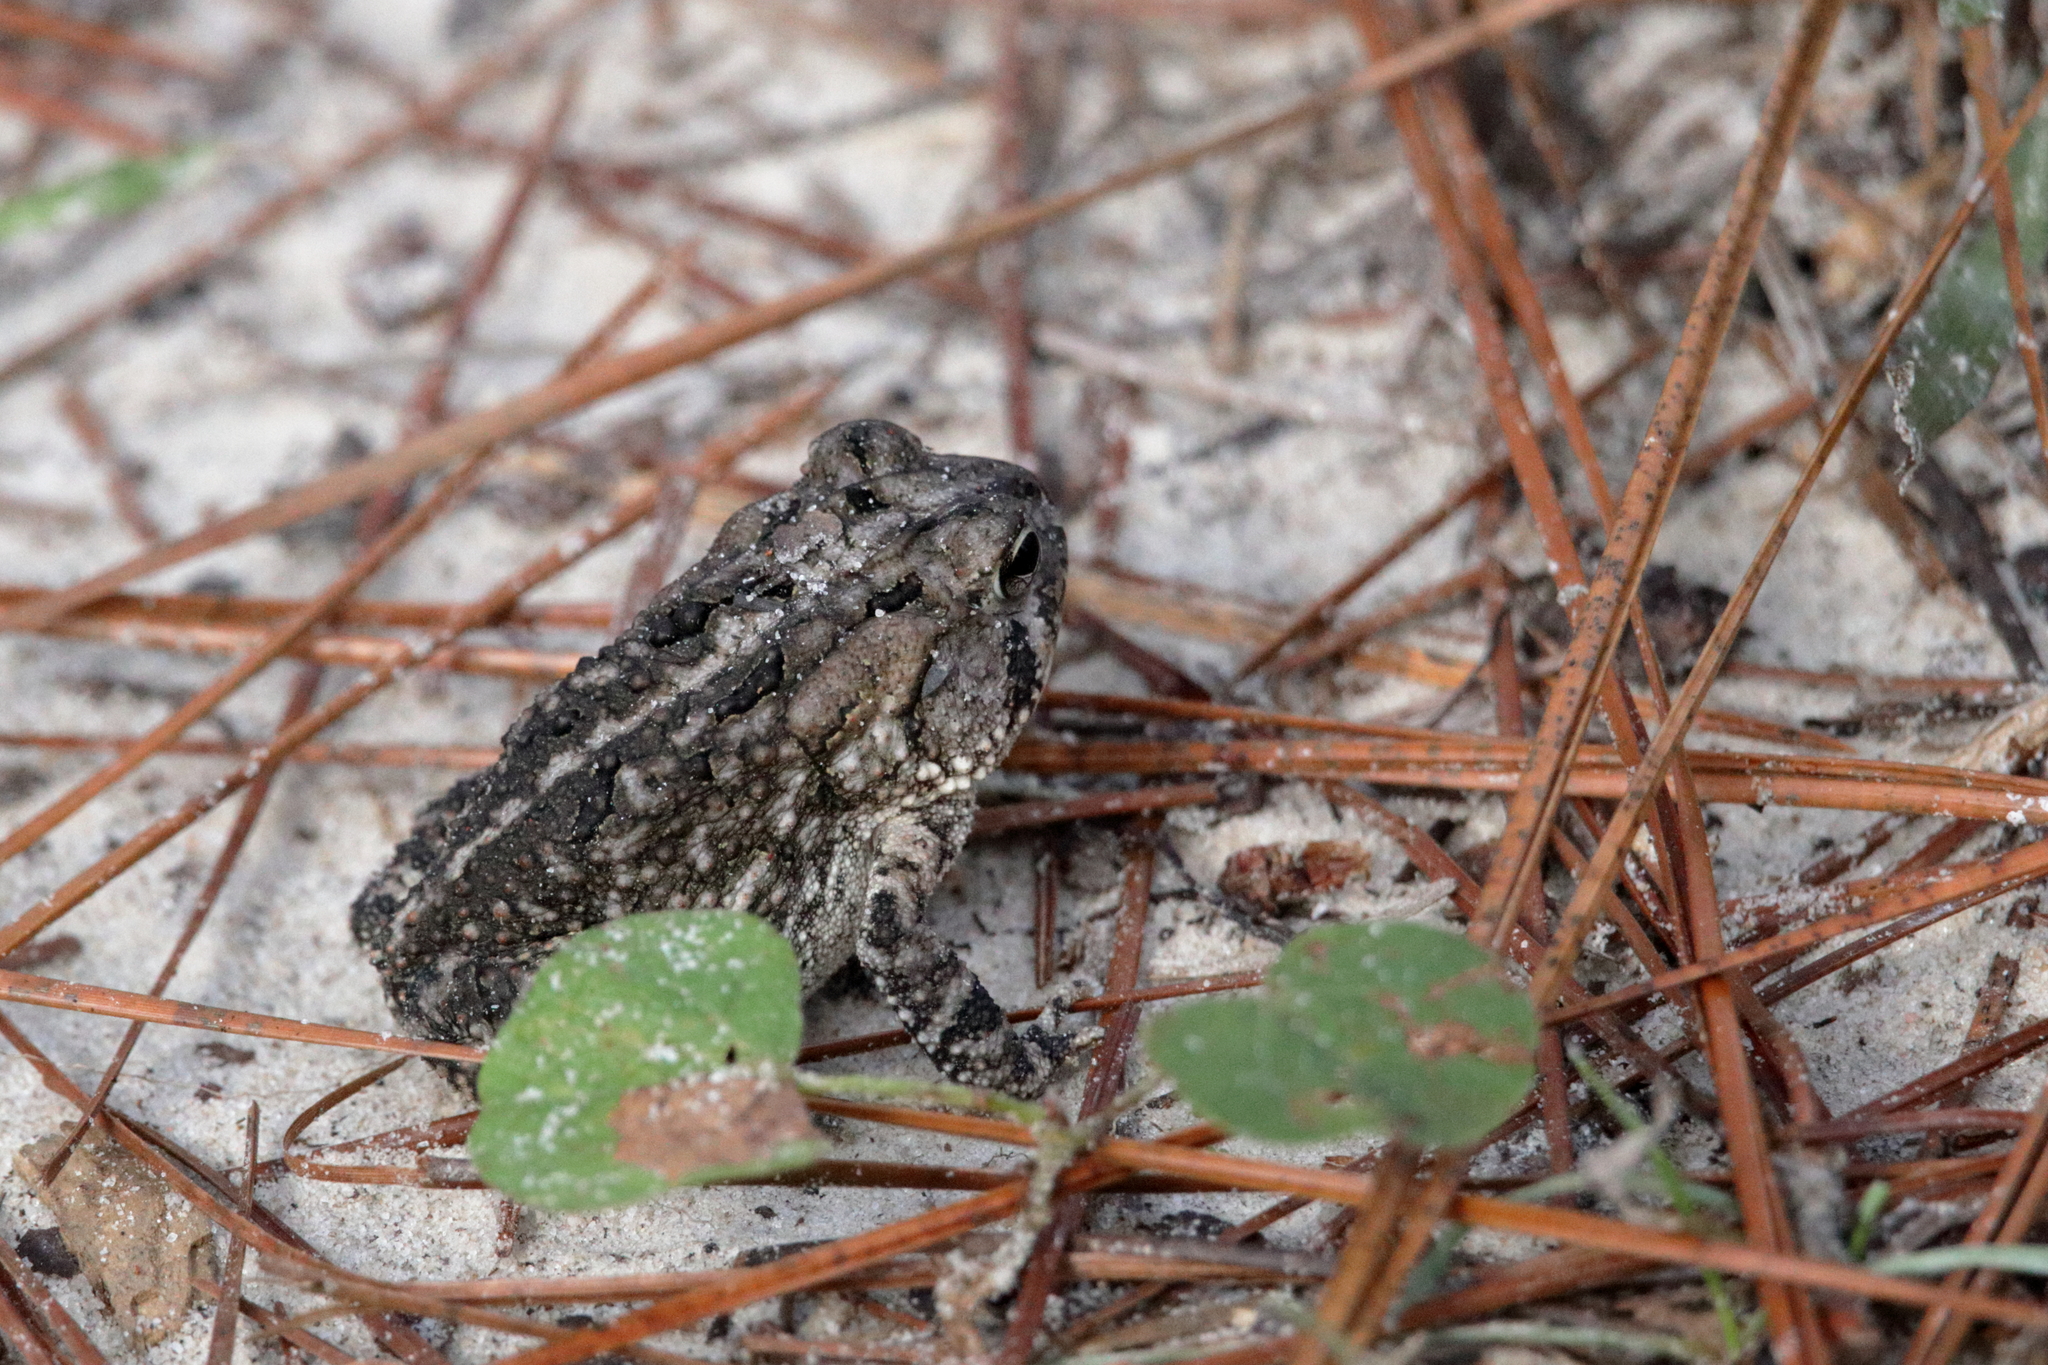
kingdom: Animalia
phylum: Chordata
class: Amphibia
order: Anura
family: Bufonidae
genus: Anaxyrus
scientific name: Anaxyrus terrestris
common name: Southern toad
